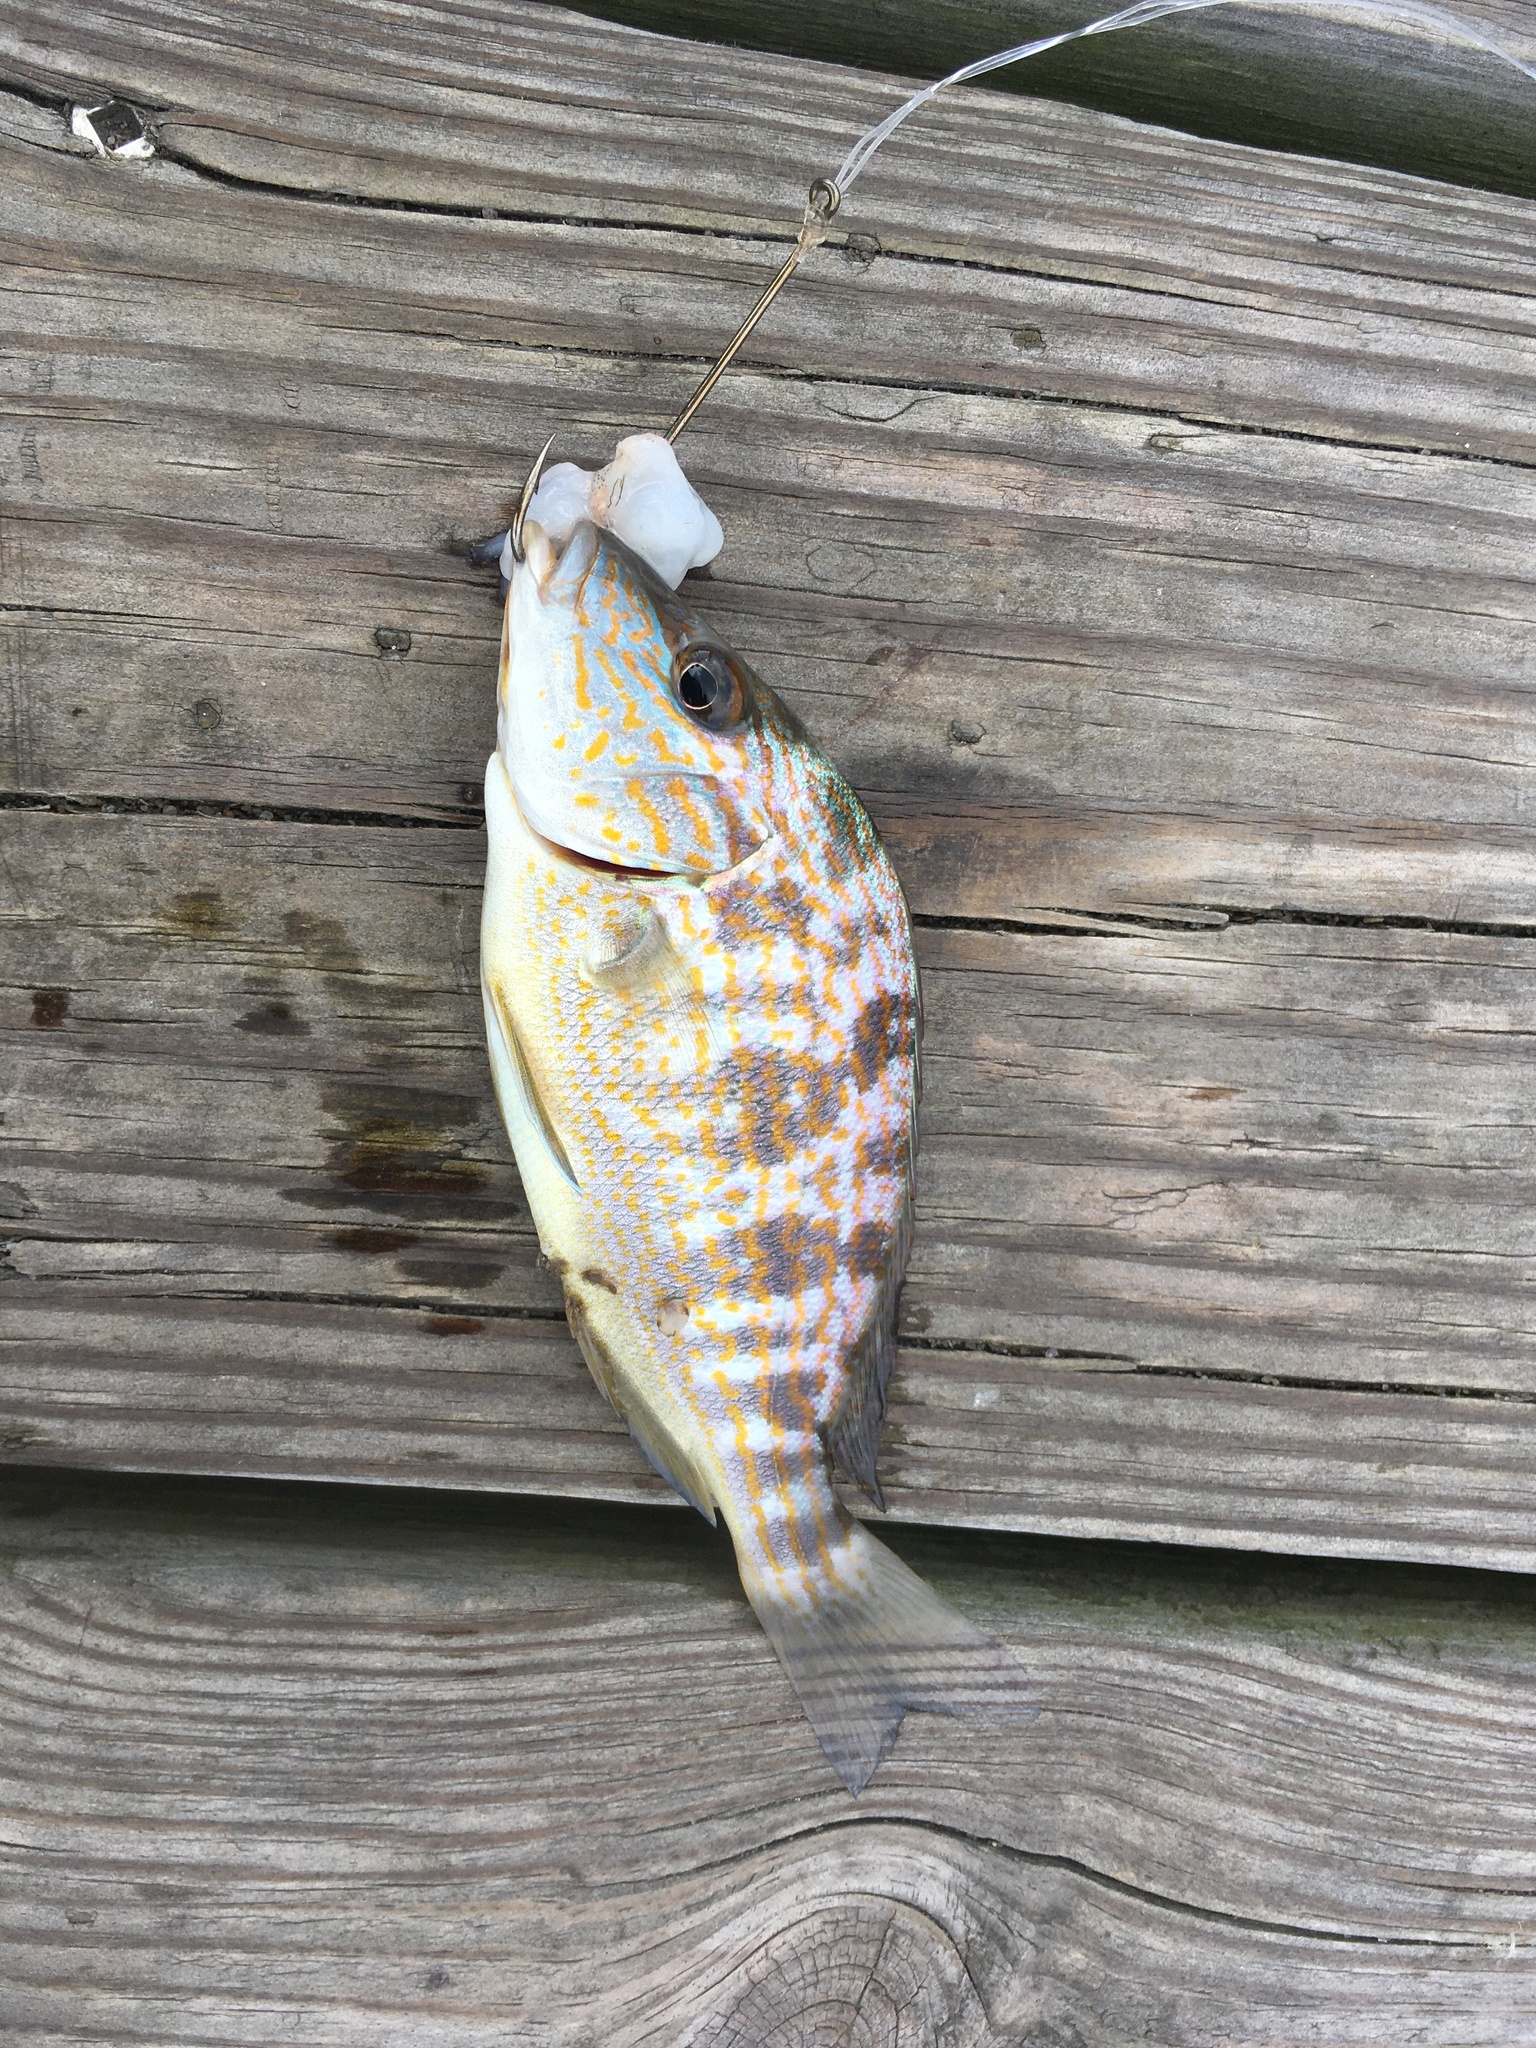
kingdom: Animalia
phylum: Chordata
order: Perciformes
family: Haemulidae
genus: Orthopristis
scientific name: Orthopristis chrysoptera
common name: Pigfish
